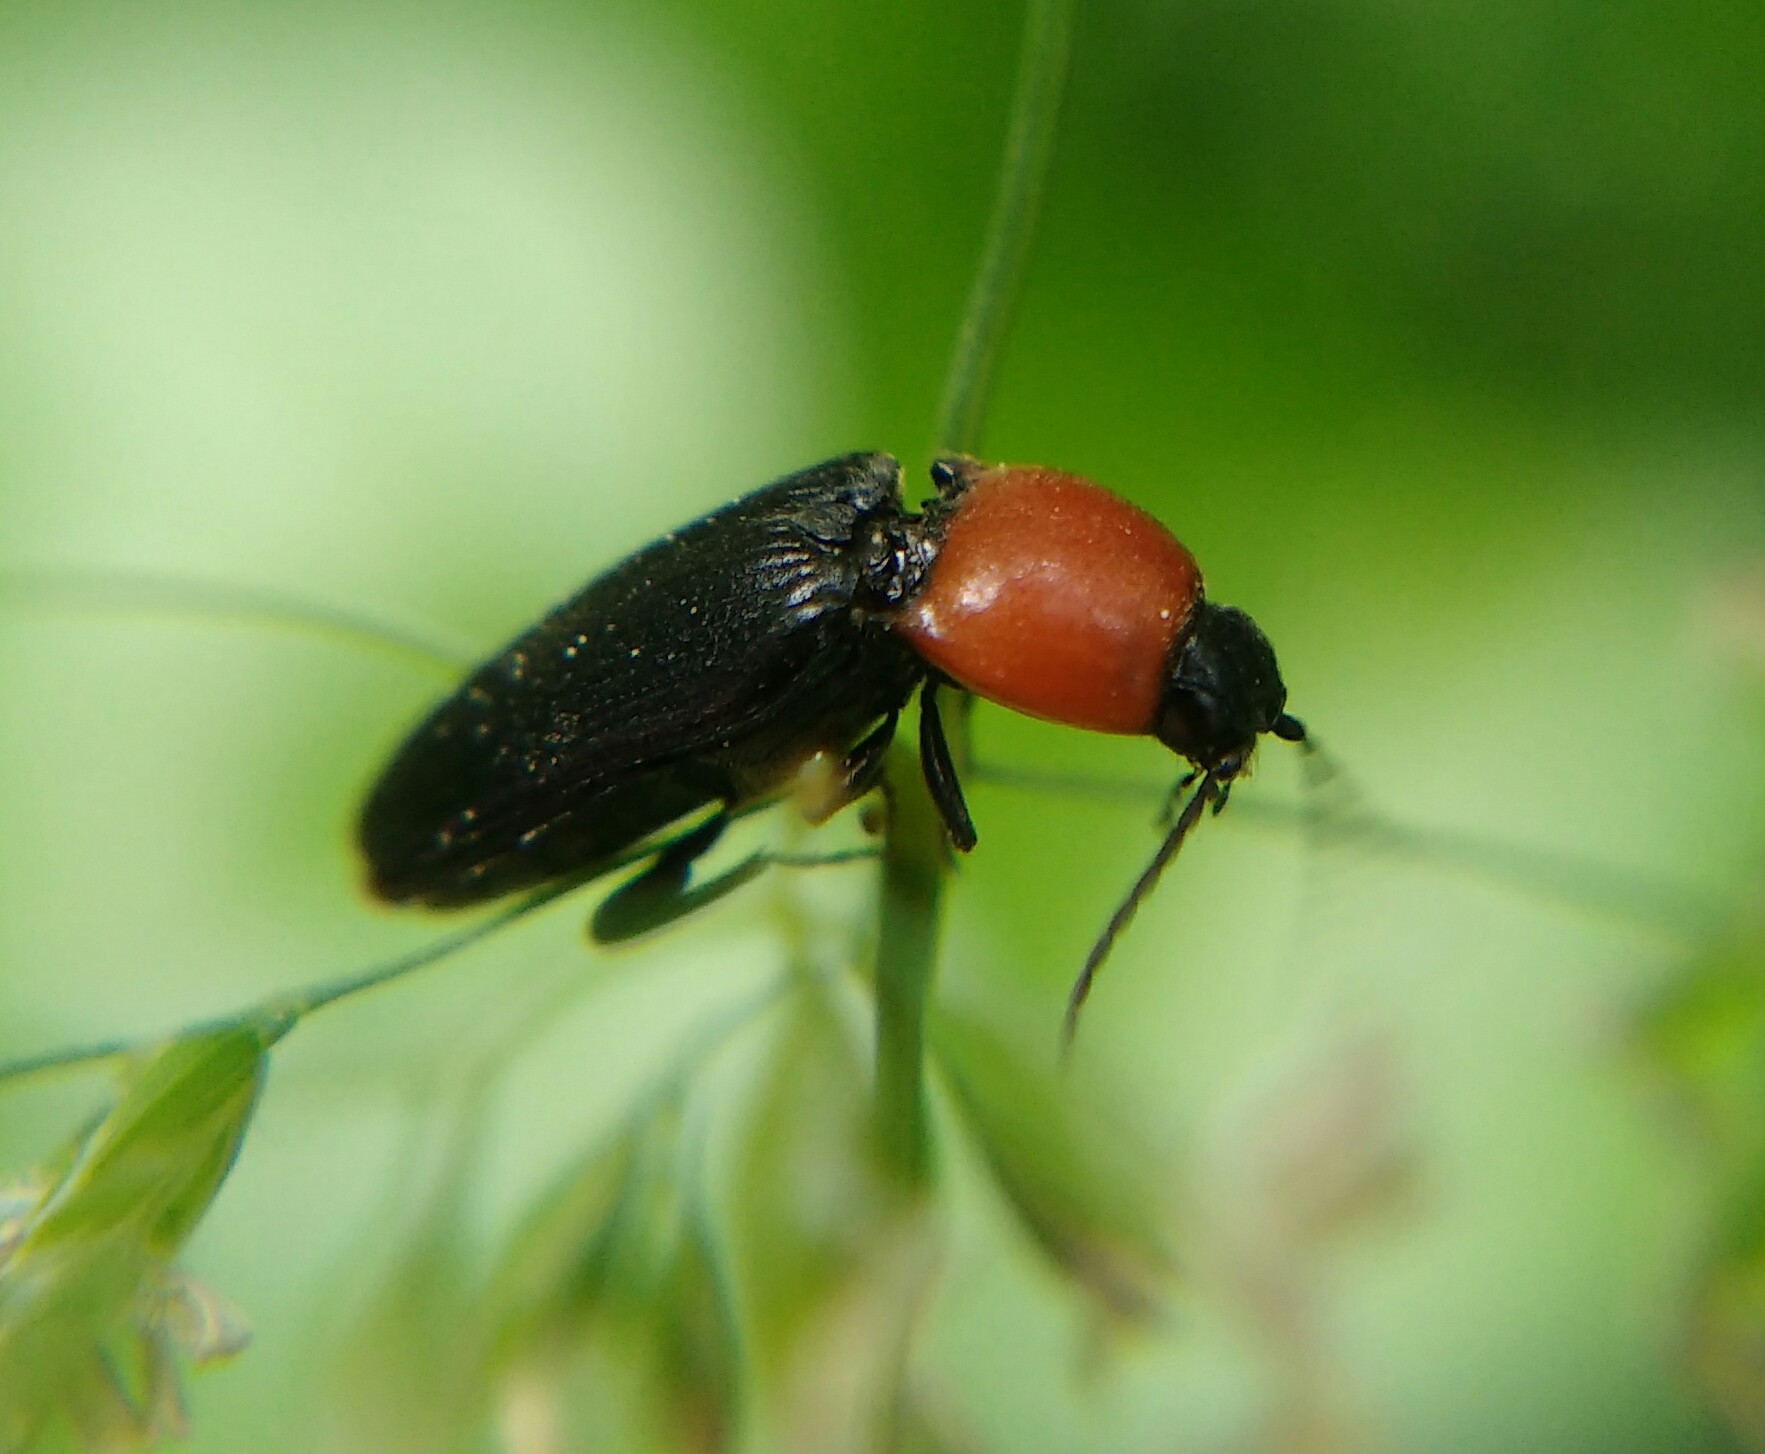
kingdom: Animalia
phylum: Arthropoda
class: Insecta
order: Coleoptera
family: Elateridae
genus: Cardiophorus
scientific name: Cardiophorus gramineus
